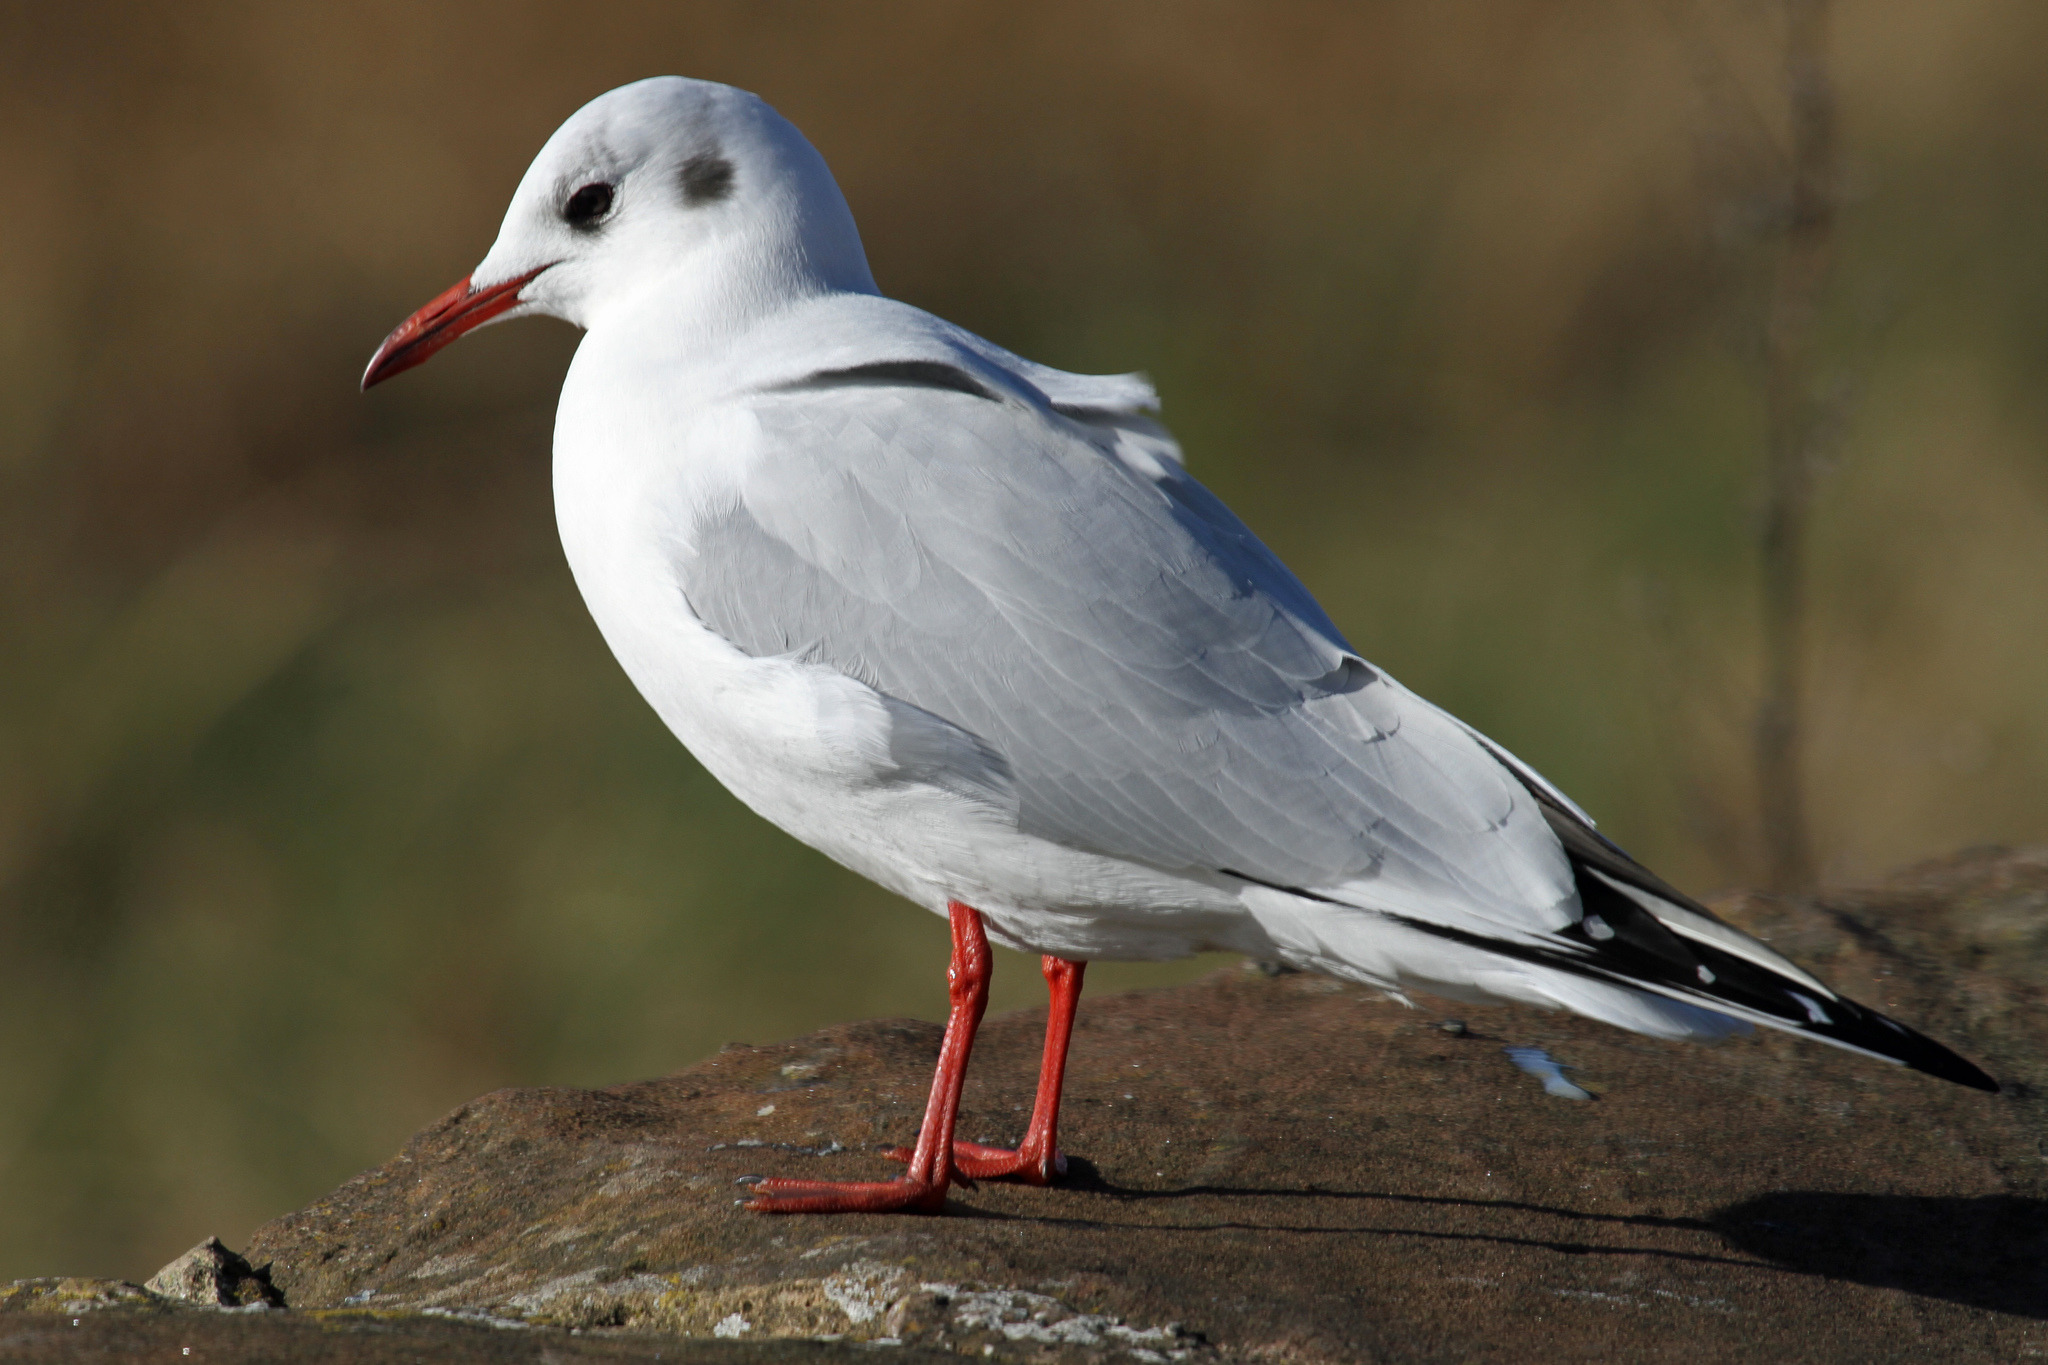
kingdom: Animalia
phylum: Chordata
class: Aves
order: Charadriiformes
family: Laridae
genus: Chroicocephalus
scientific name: Chroicocephalus ridibundus
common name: Black-headed gull
